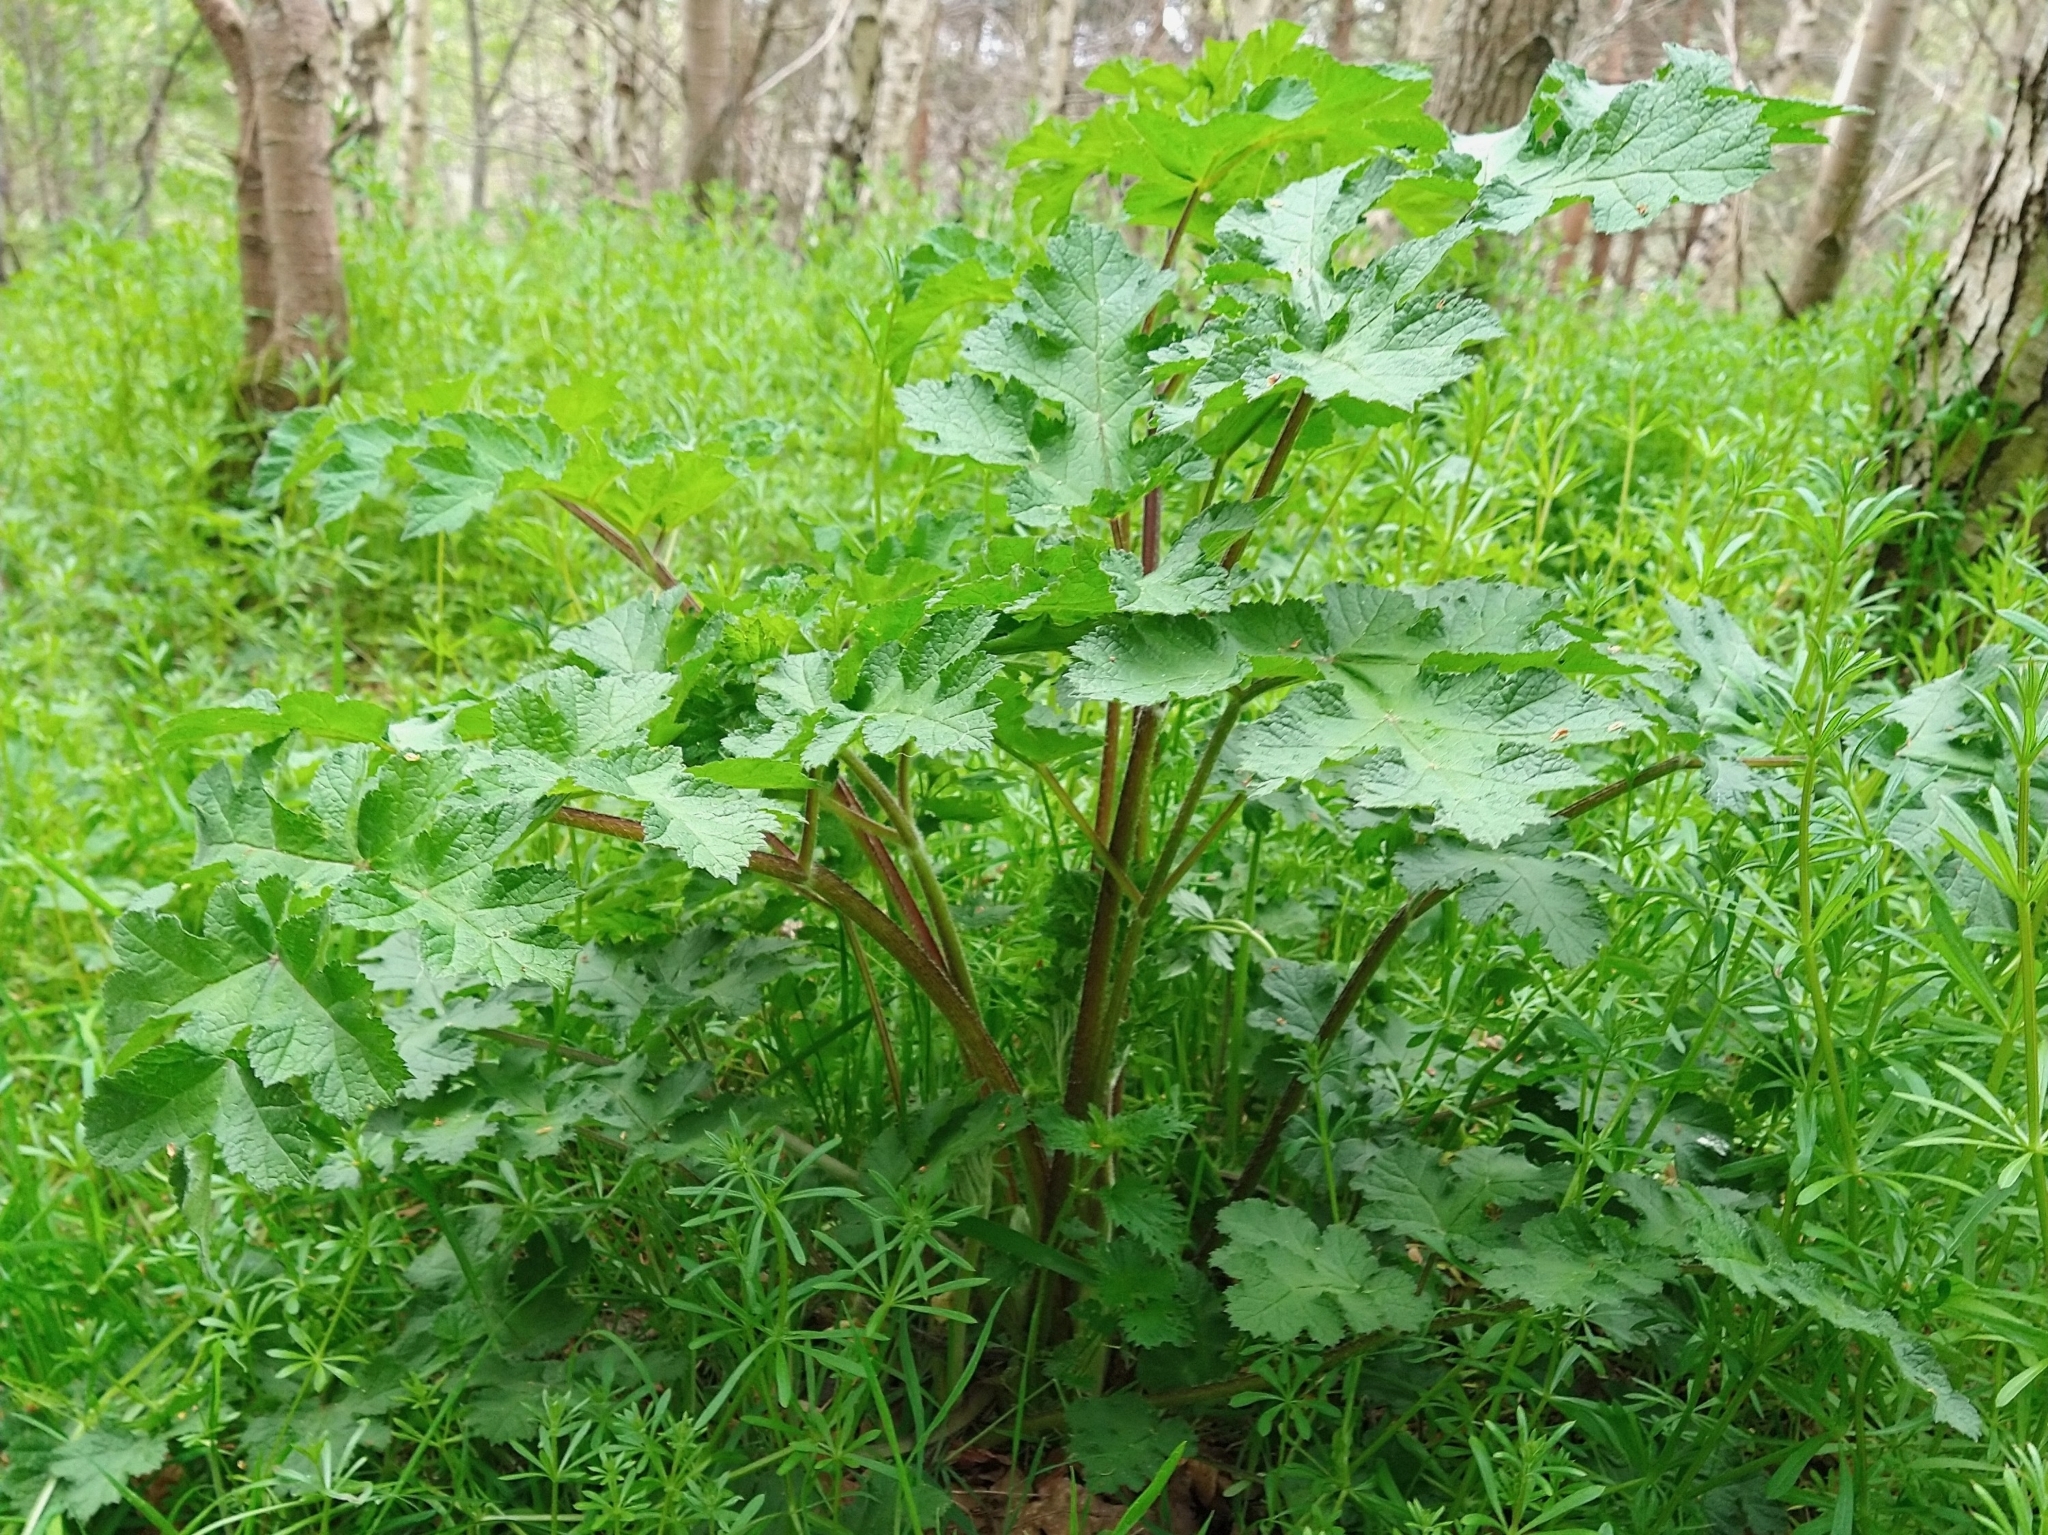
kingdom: Plantae
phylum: Tracheophyta
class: Magnoliopsida
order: Apiales
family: Apiaceae
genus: Heracleum
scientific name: Heracleum sphondylium
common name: Hogweed
